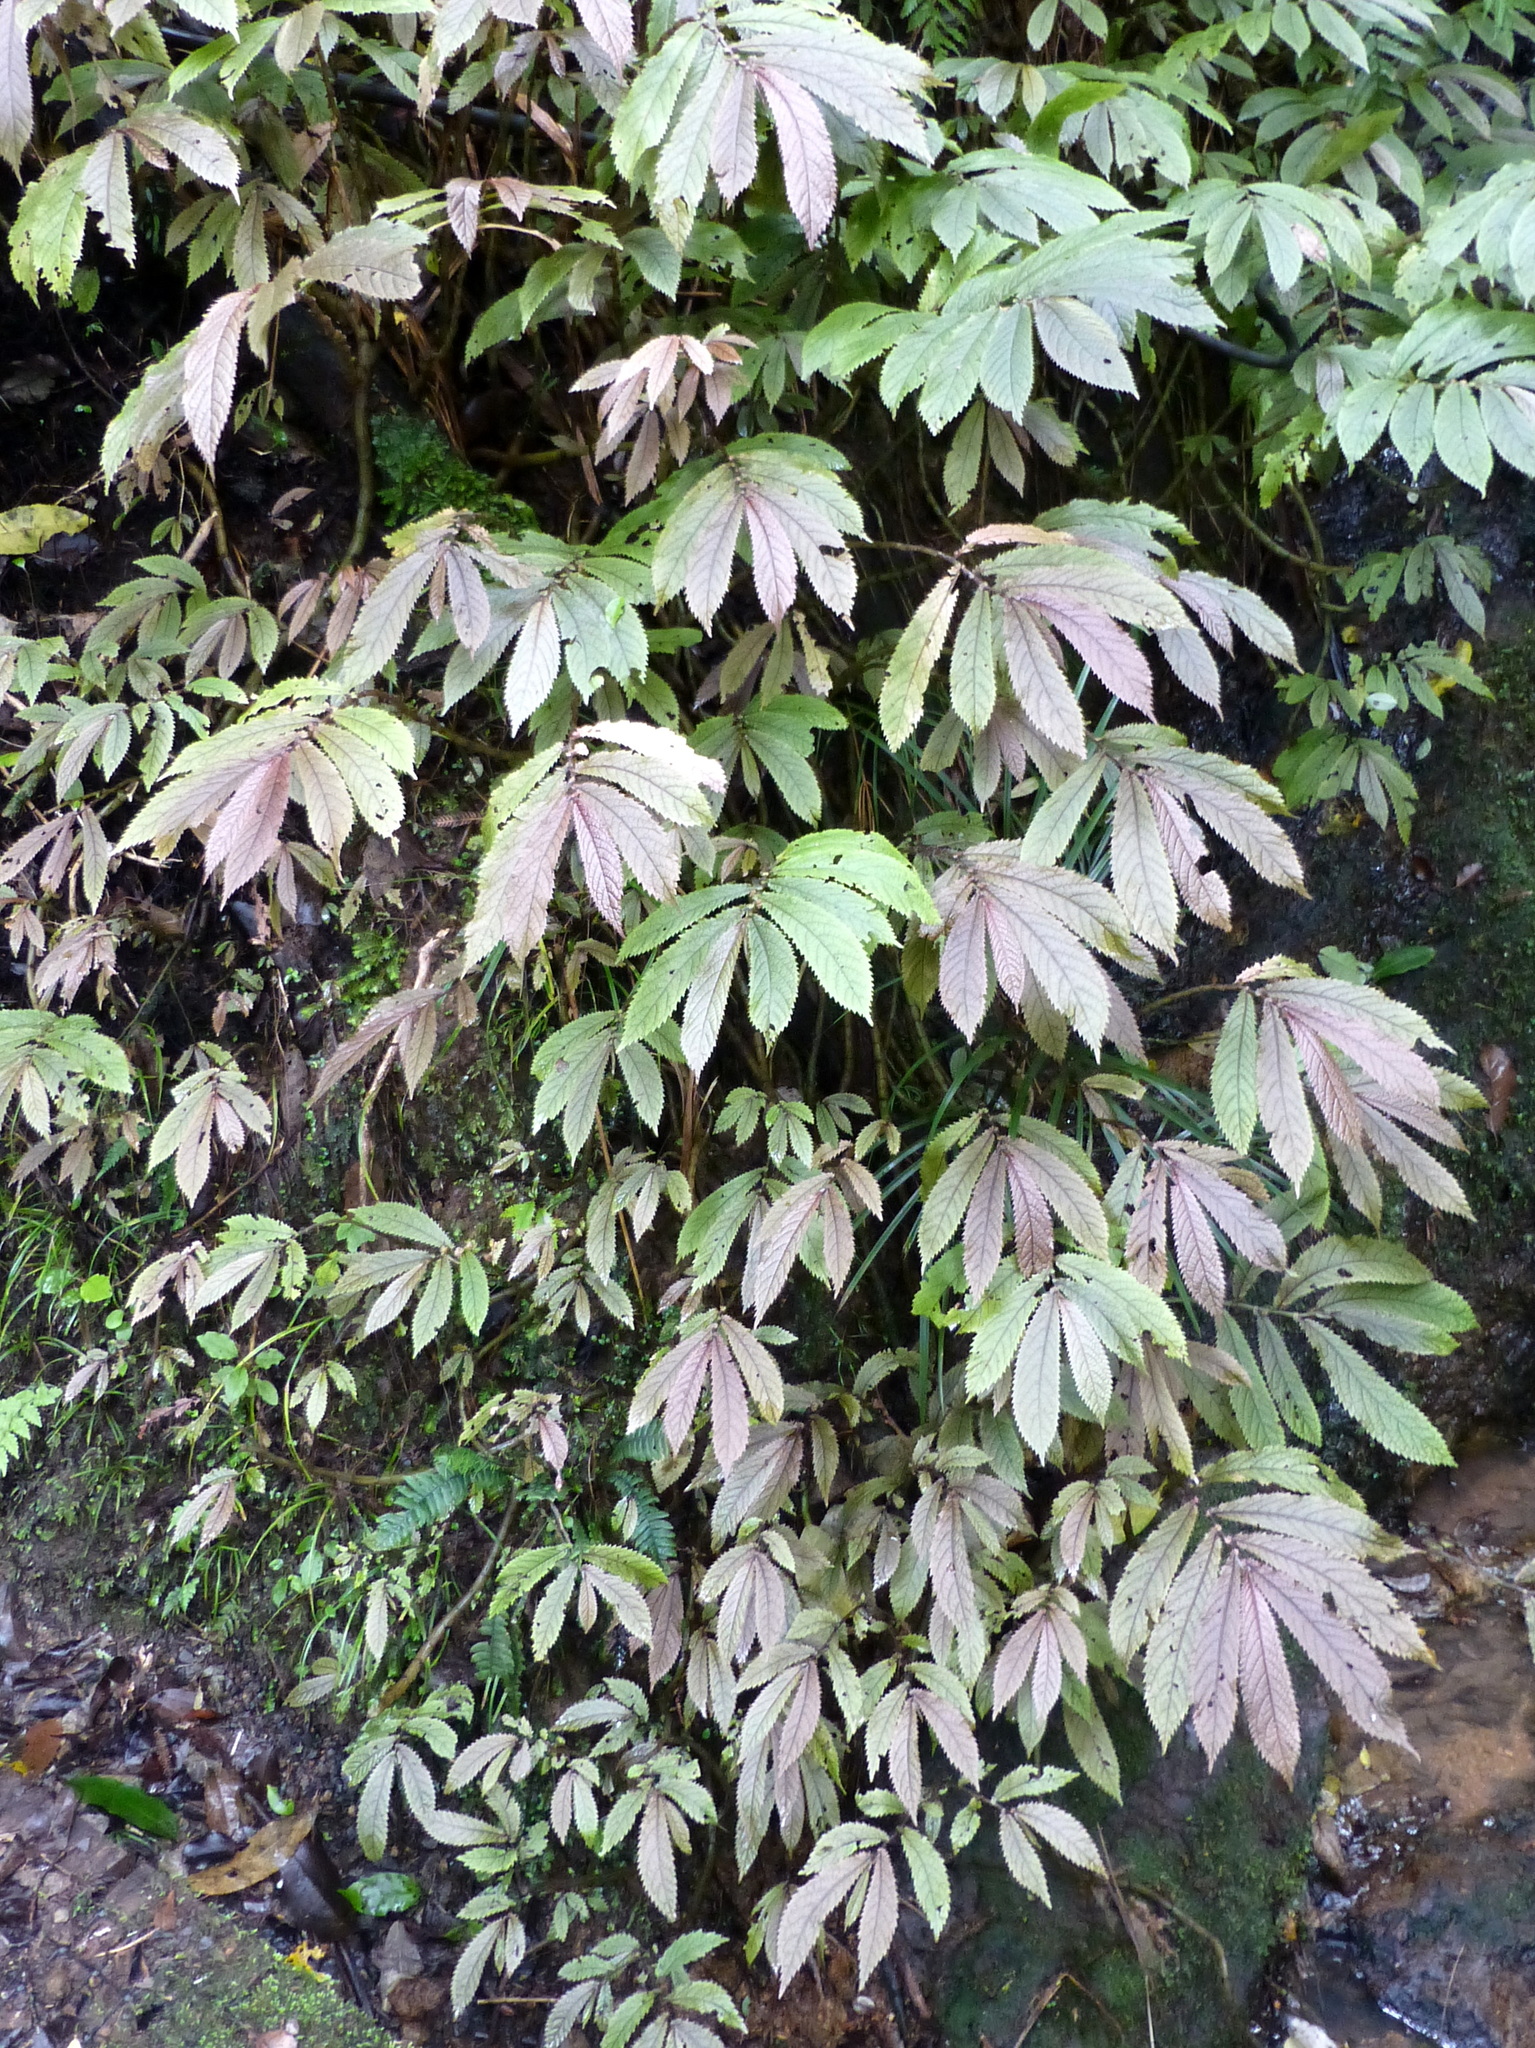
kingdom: Plantae
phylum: Tracheophyta
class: Magnoliopsida
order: Rosales
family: Urticaceae
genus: Elatostema
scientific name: Elatostema rugosum
